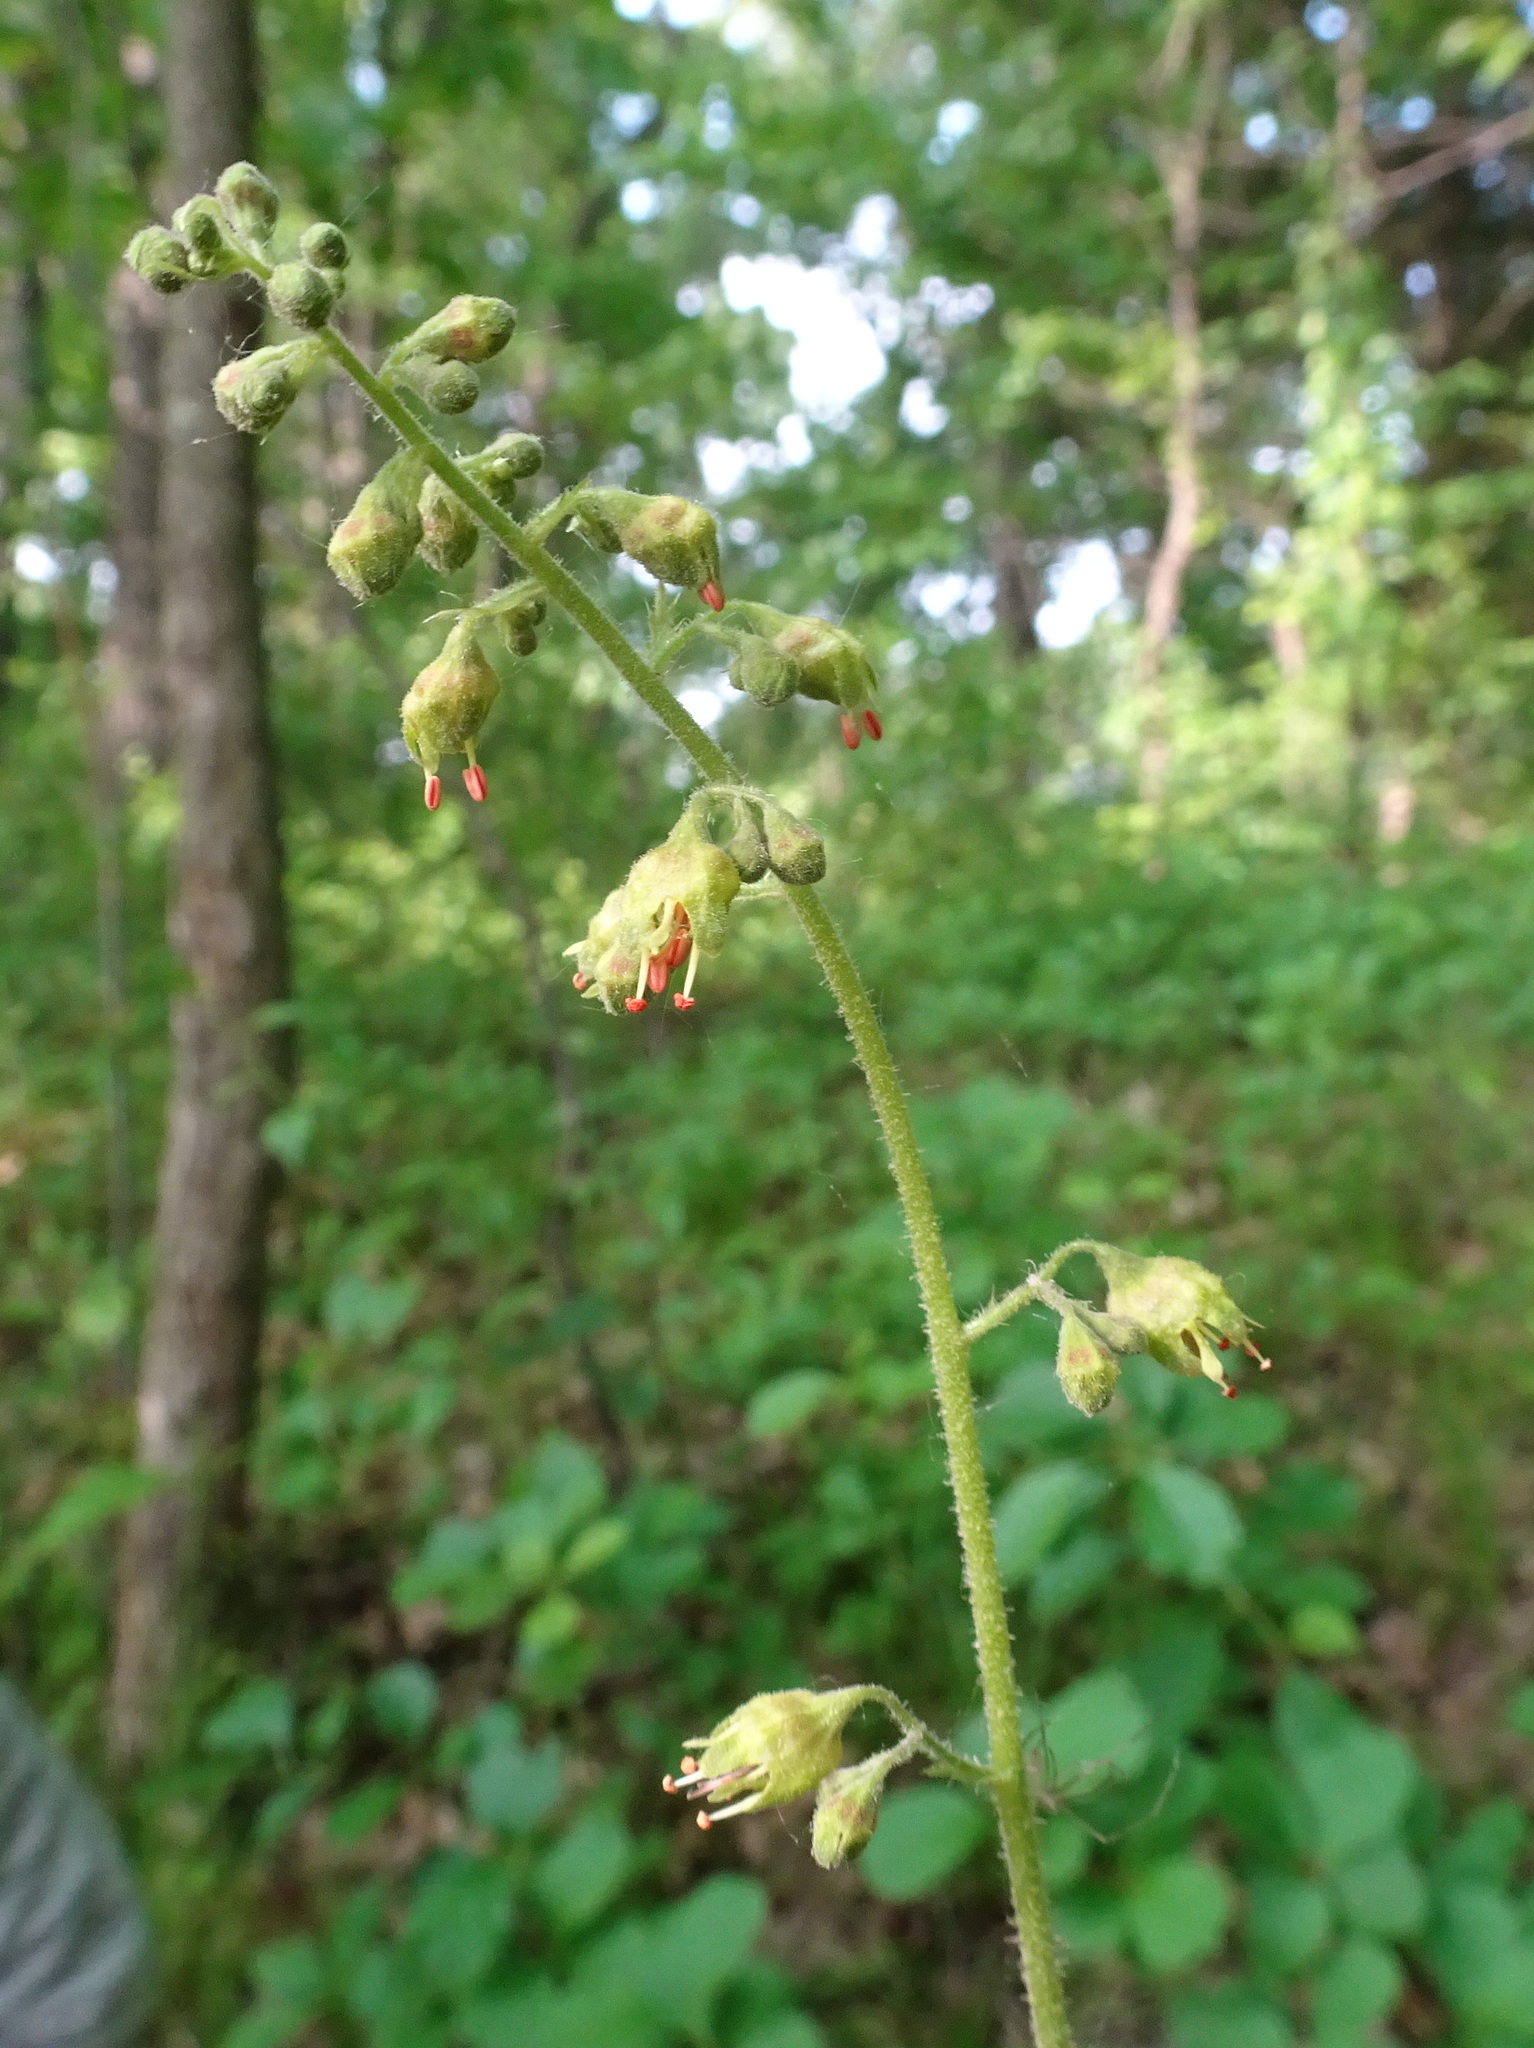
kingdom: Plantae
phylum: Tracheophyta
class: Magnoliopsida
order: Saxifragales
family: Saxifragaceae
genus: Heuchera
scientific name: Heuchera americana
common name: Alumroot
